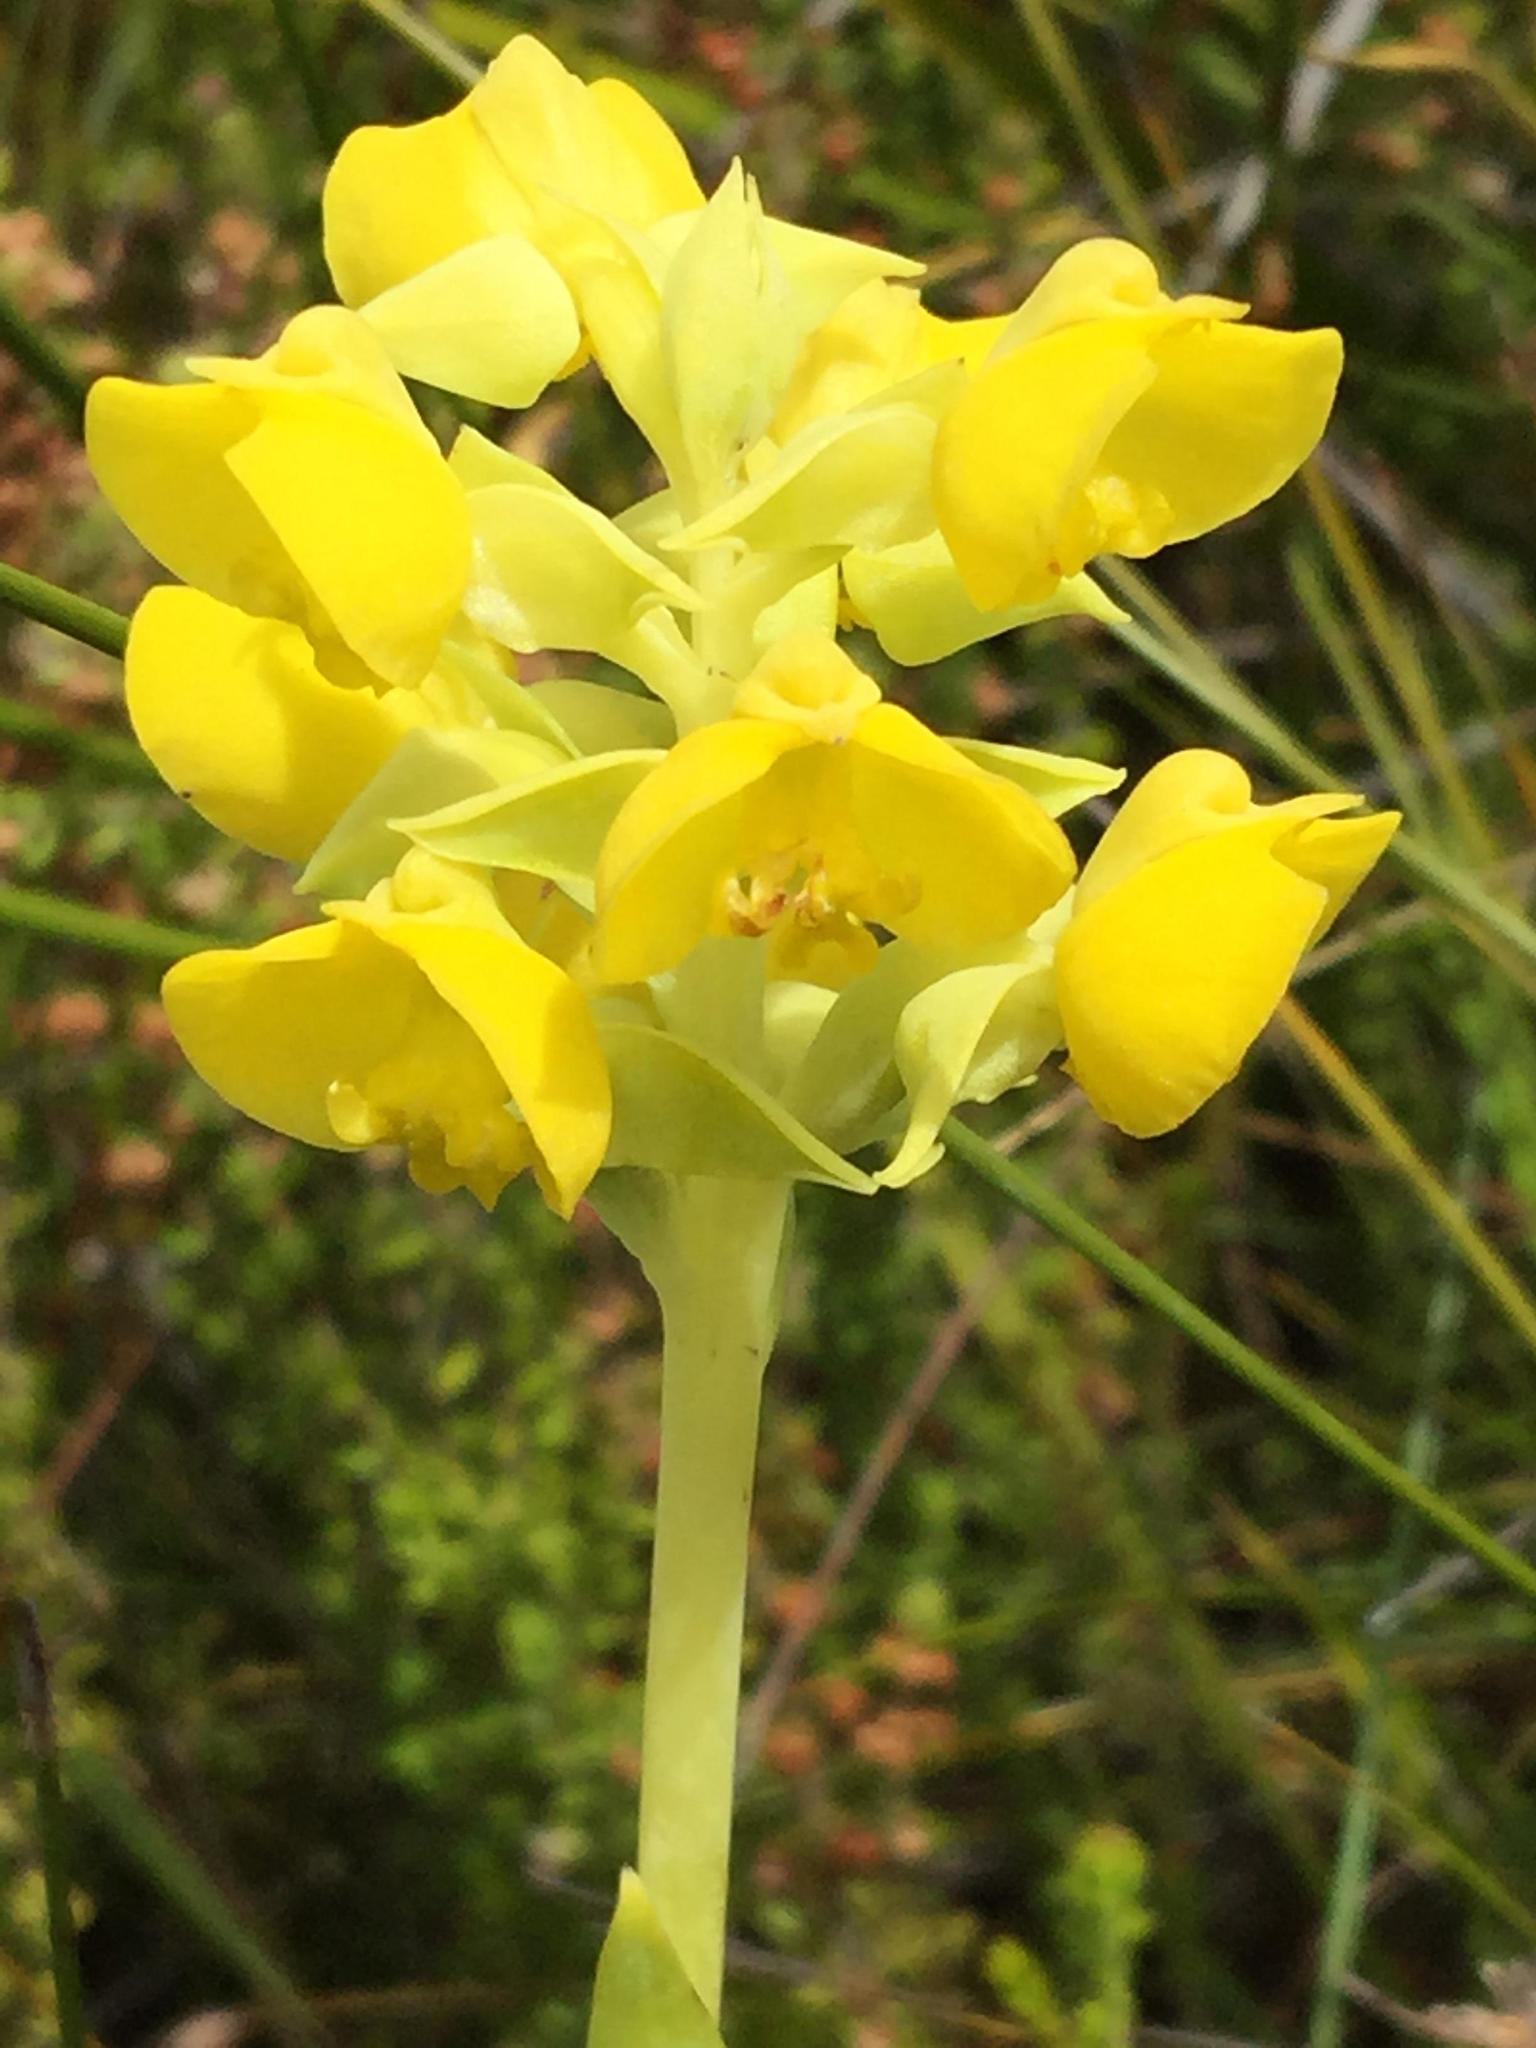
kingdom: Plantae
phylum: Tracheophyta
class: Liliopsida
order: Asparagales
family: Orchidaceae
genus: Pterygodium
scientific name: Pterygodium acutifolium
